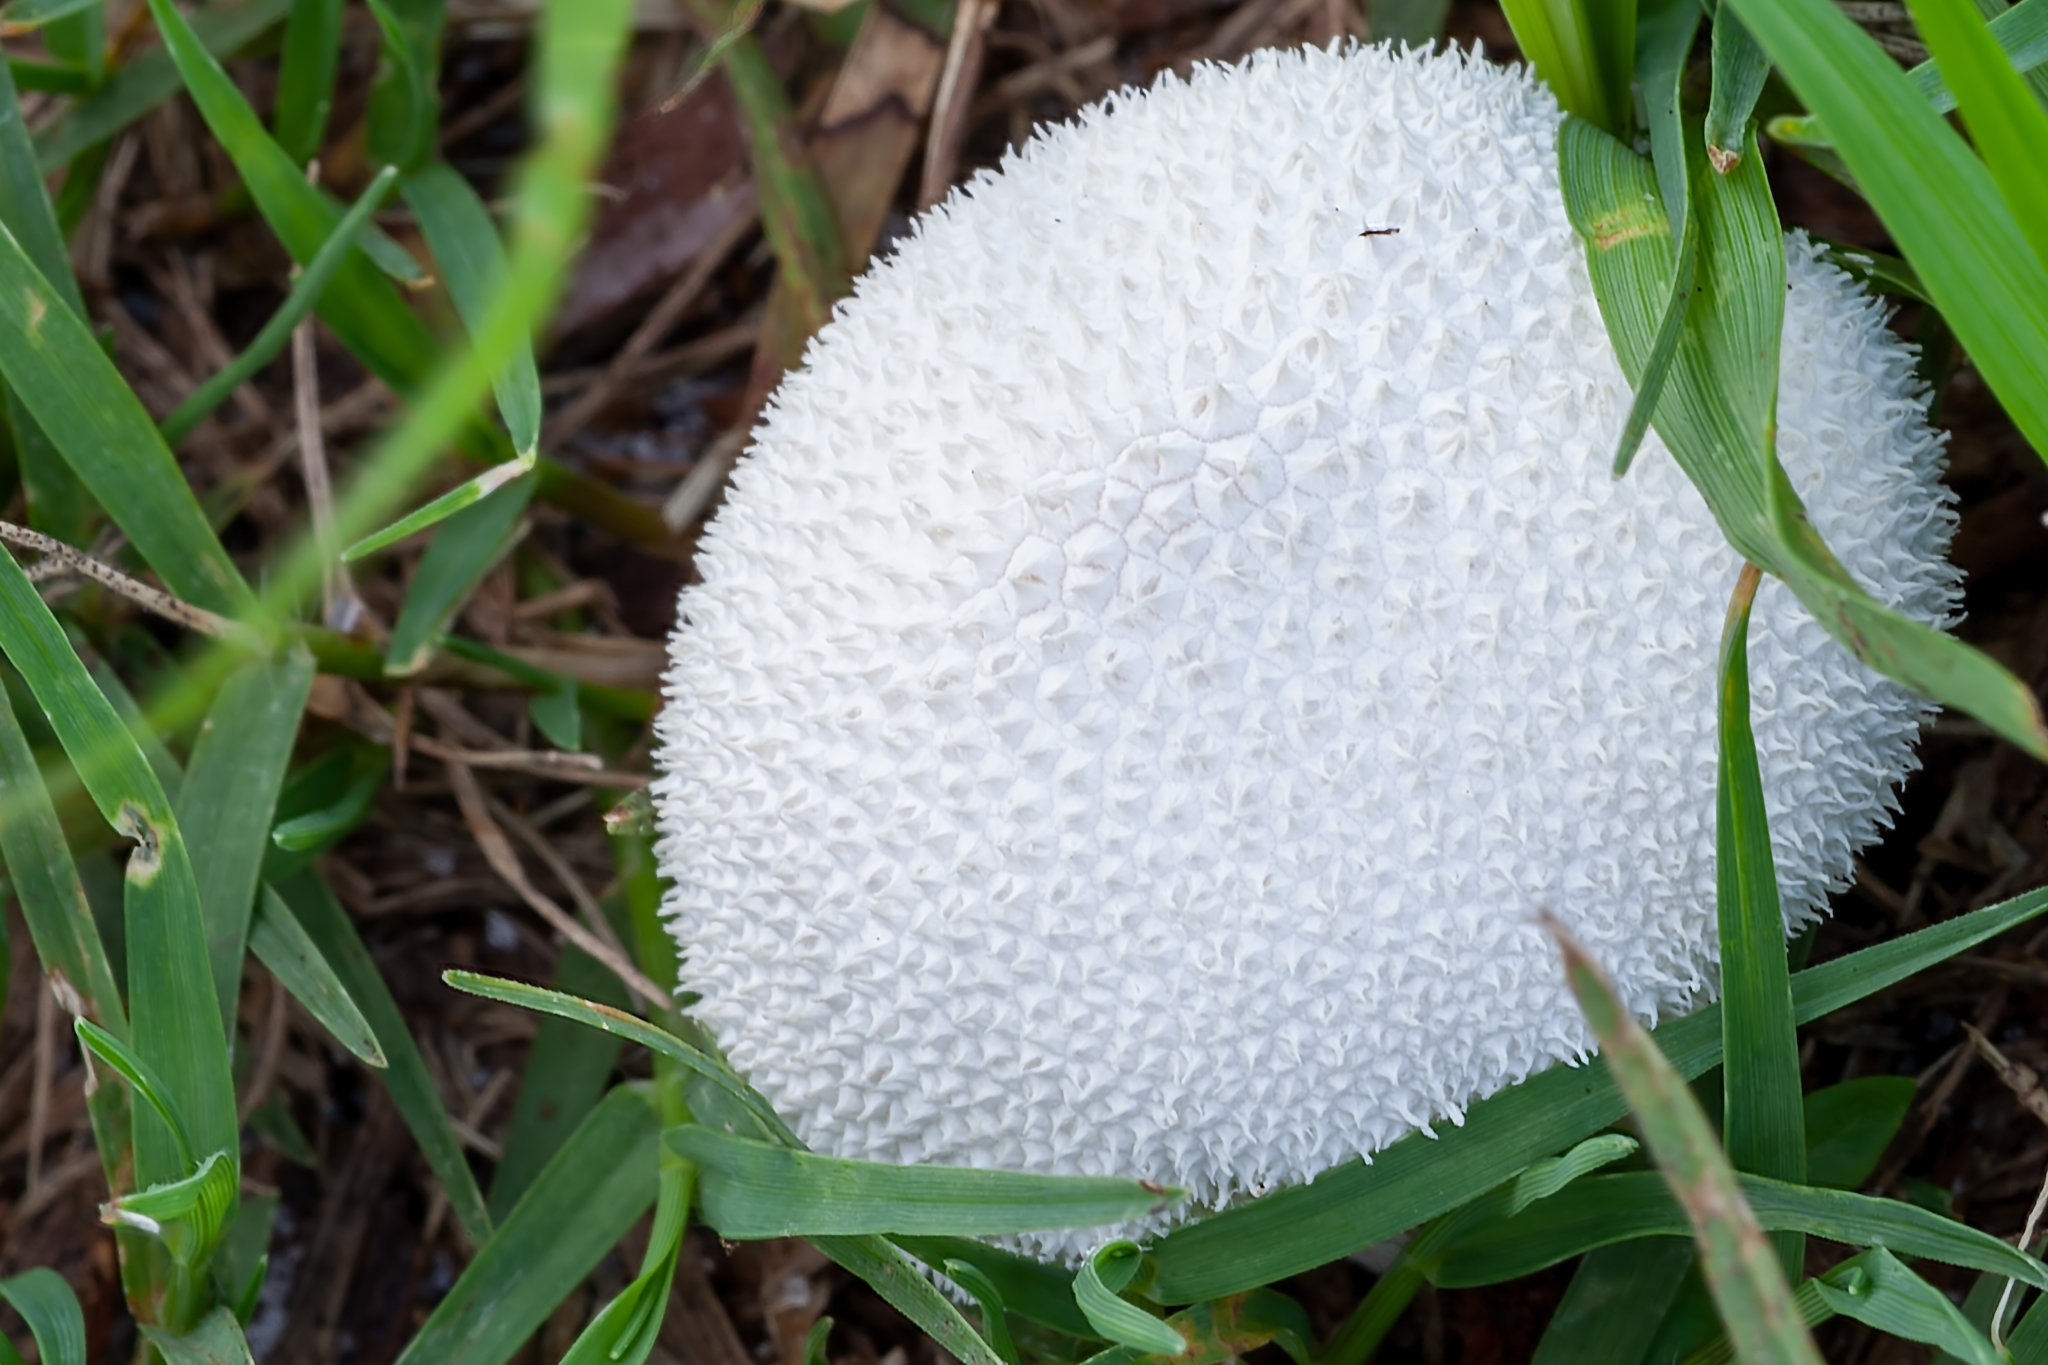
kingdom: Fungi
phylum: Basidiomycota
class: Agaricomycetes
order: Agaricales
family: Lycoperdaceae
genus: Lycoperdon
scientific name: Lycoperdon echinatum
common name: Hedgehog puffball
